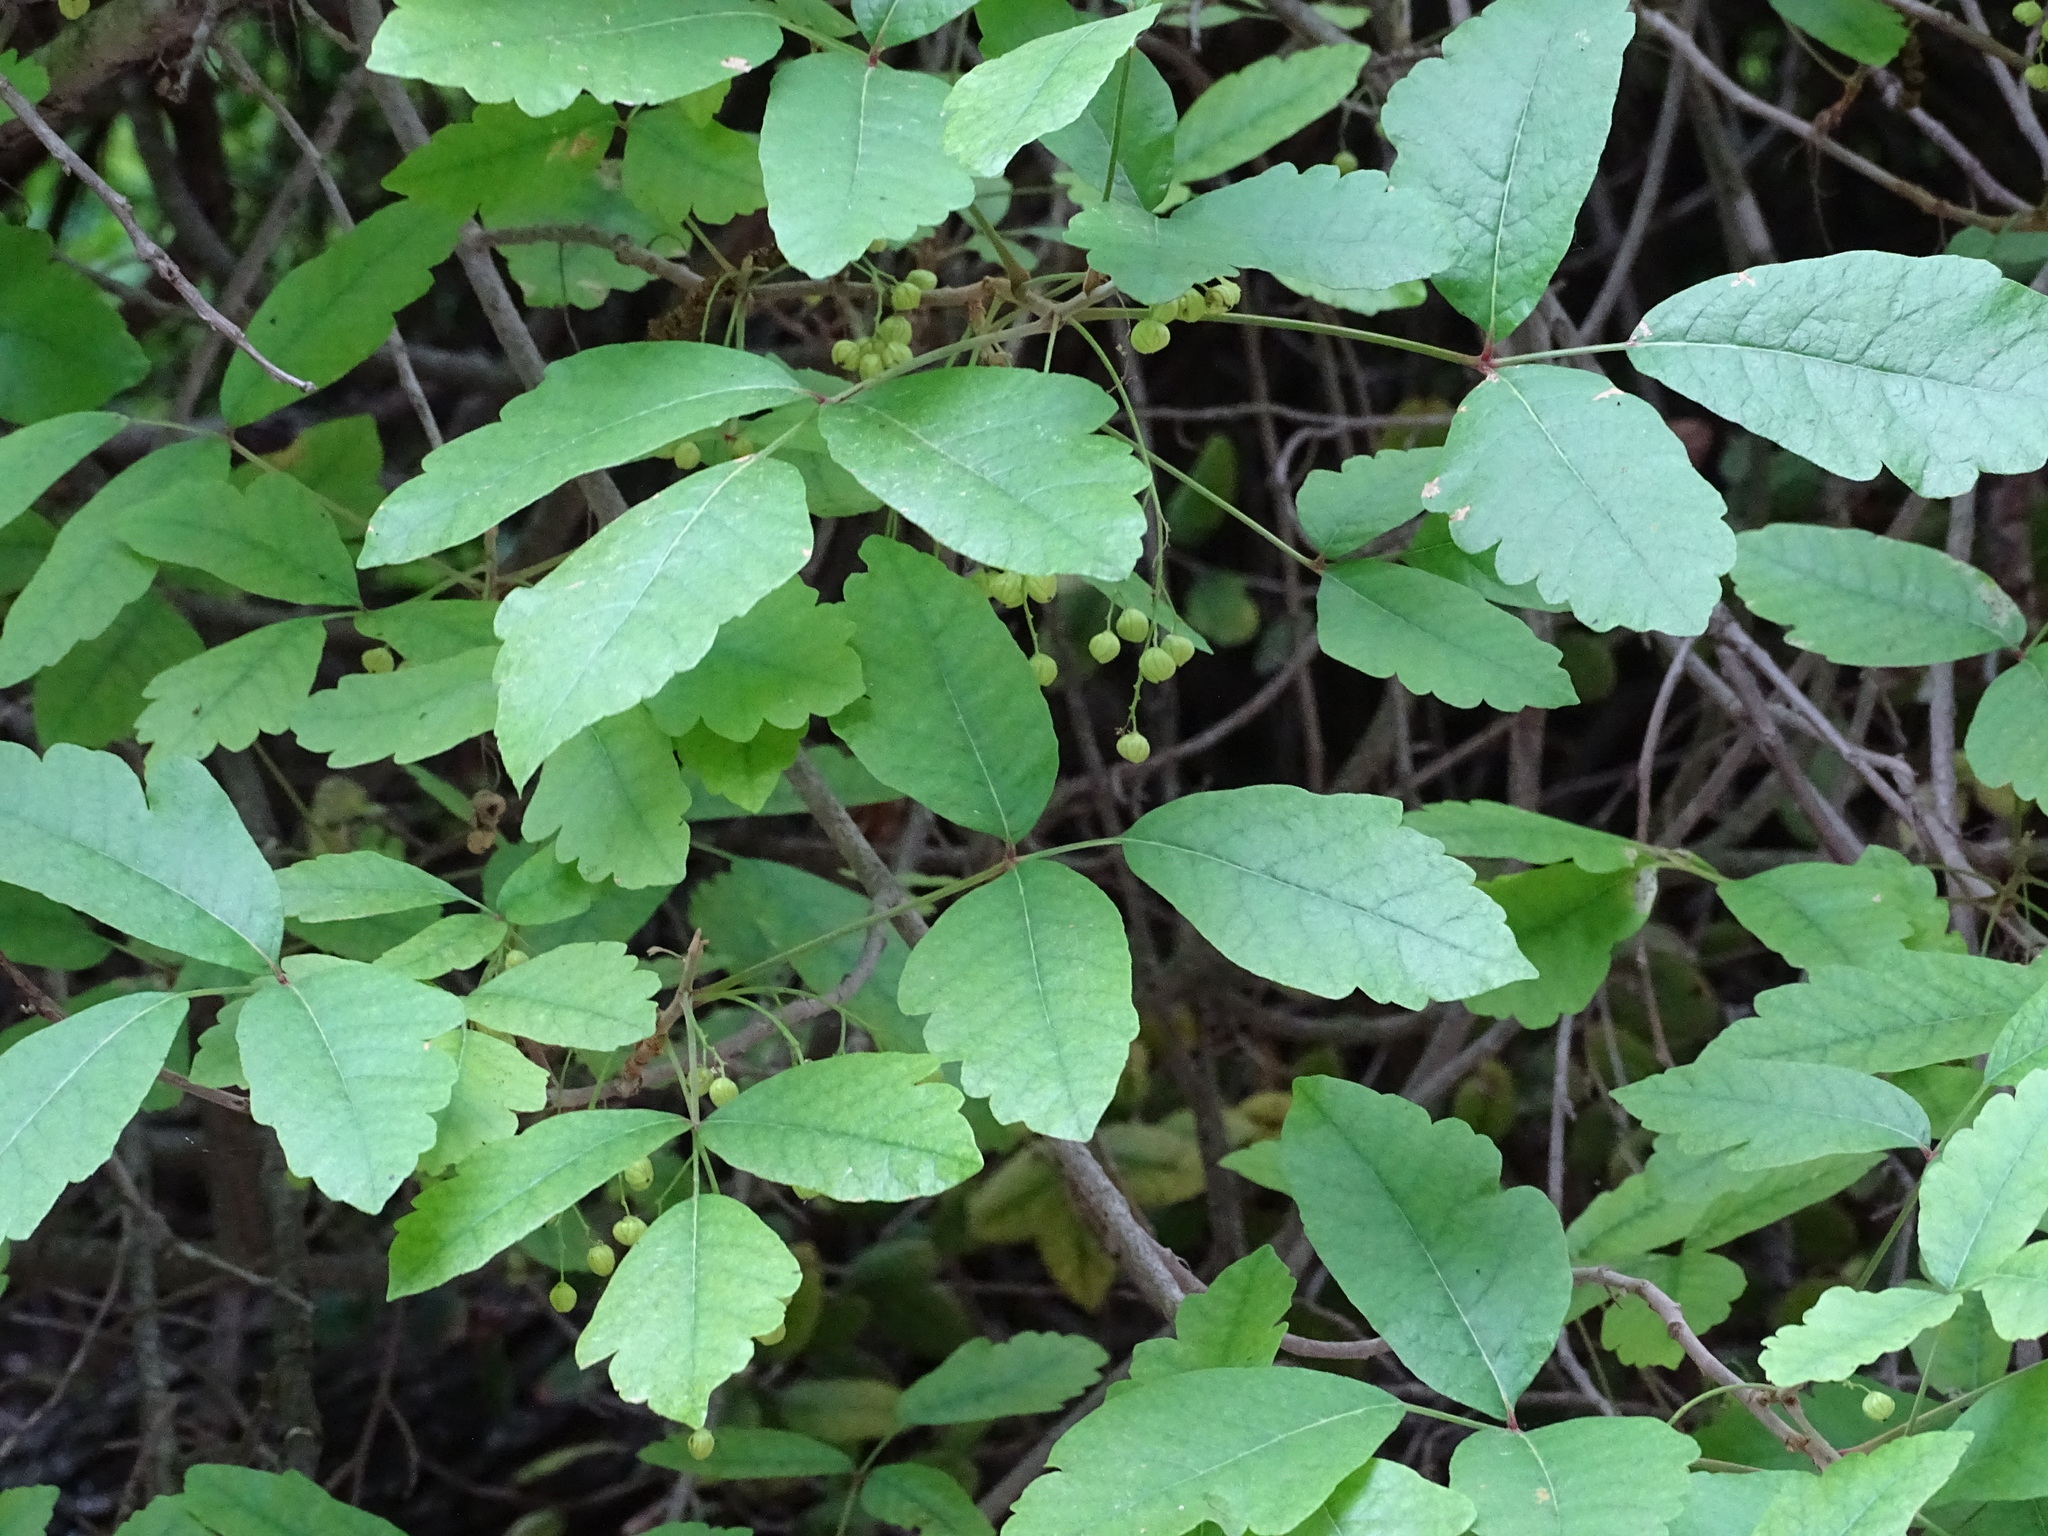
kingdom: Plantae
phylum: Tracheophyta
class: Magnoliopsida
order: Sapindales
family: Anacardiaceae
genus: Toxicodendron
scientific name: Toxicodendron diversilobum
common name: Pacific poison-oak
